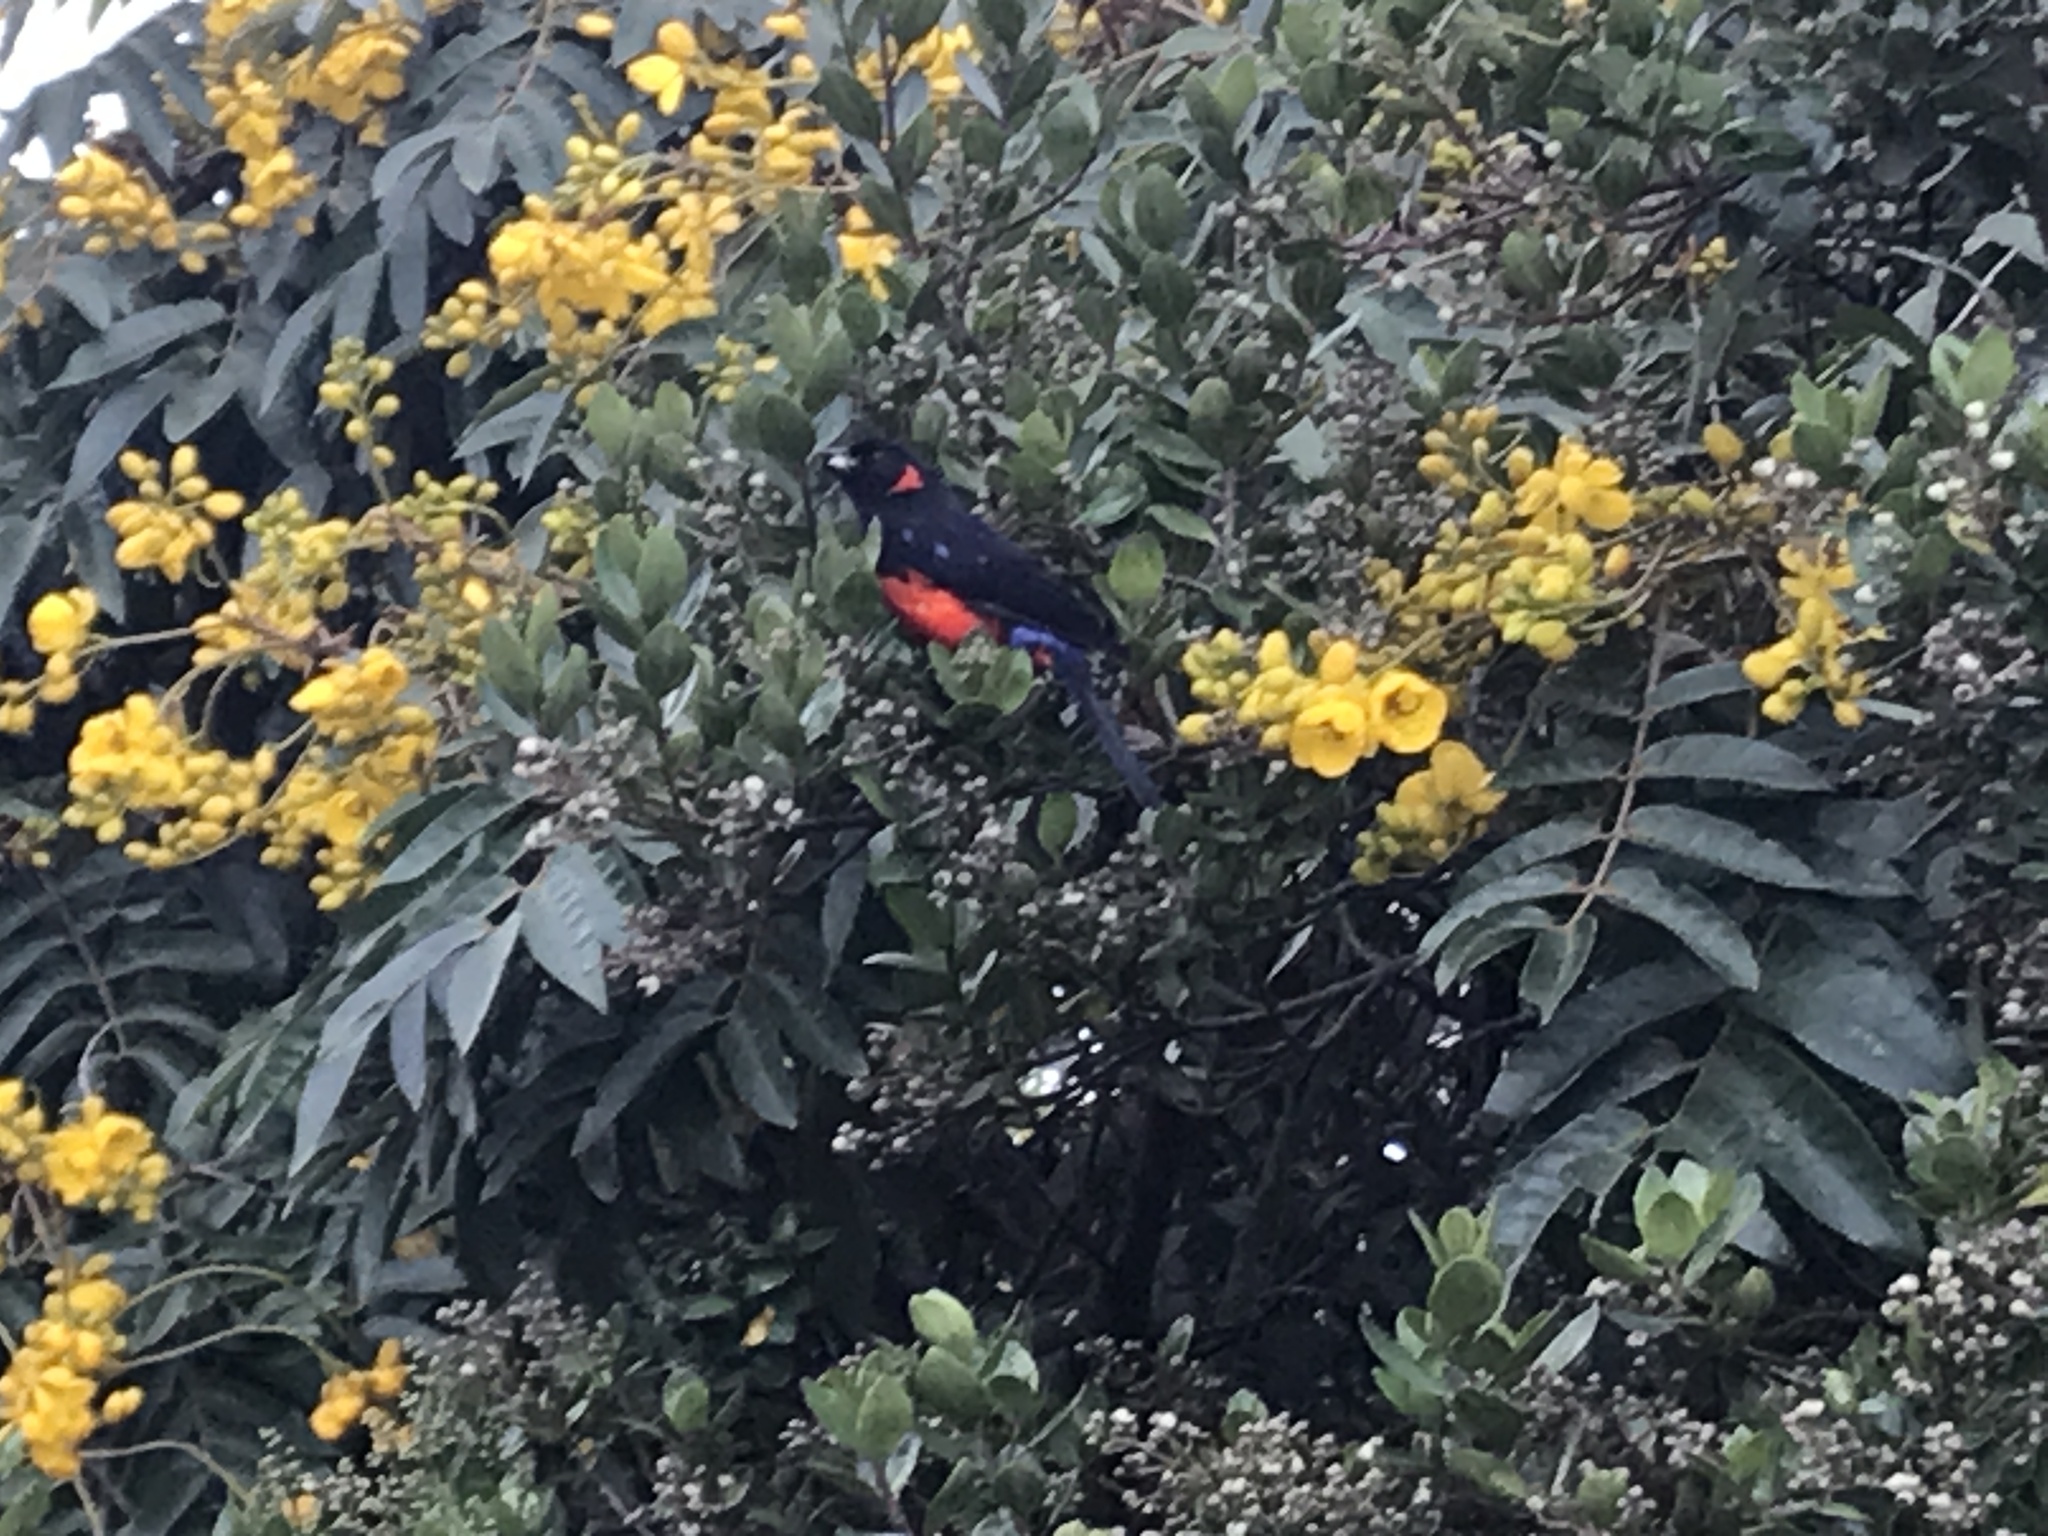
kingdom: Animalia
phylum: Chordata
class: Aves
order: Passeriformes
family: Thraupidae
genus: Anisognathus
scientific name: Anisognathus igniventris
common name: Scarlet-bellied mountain tanager
